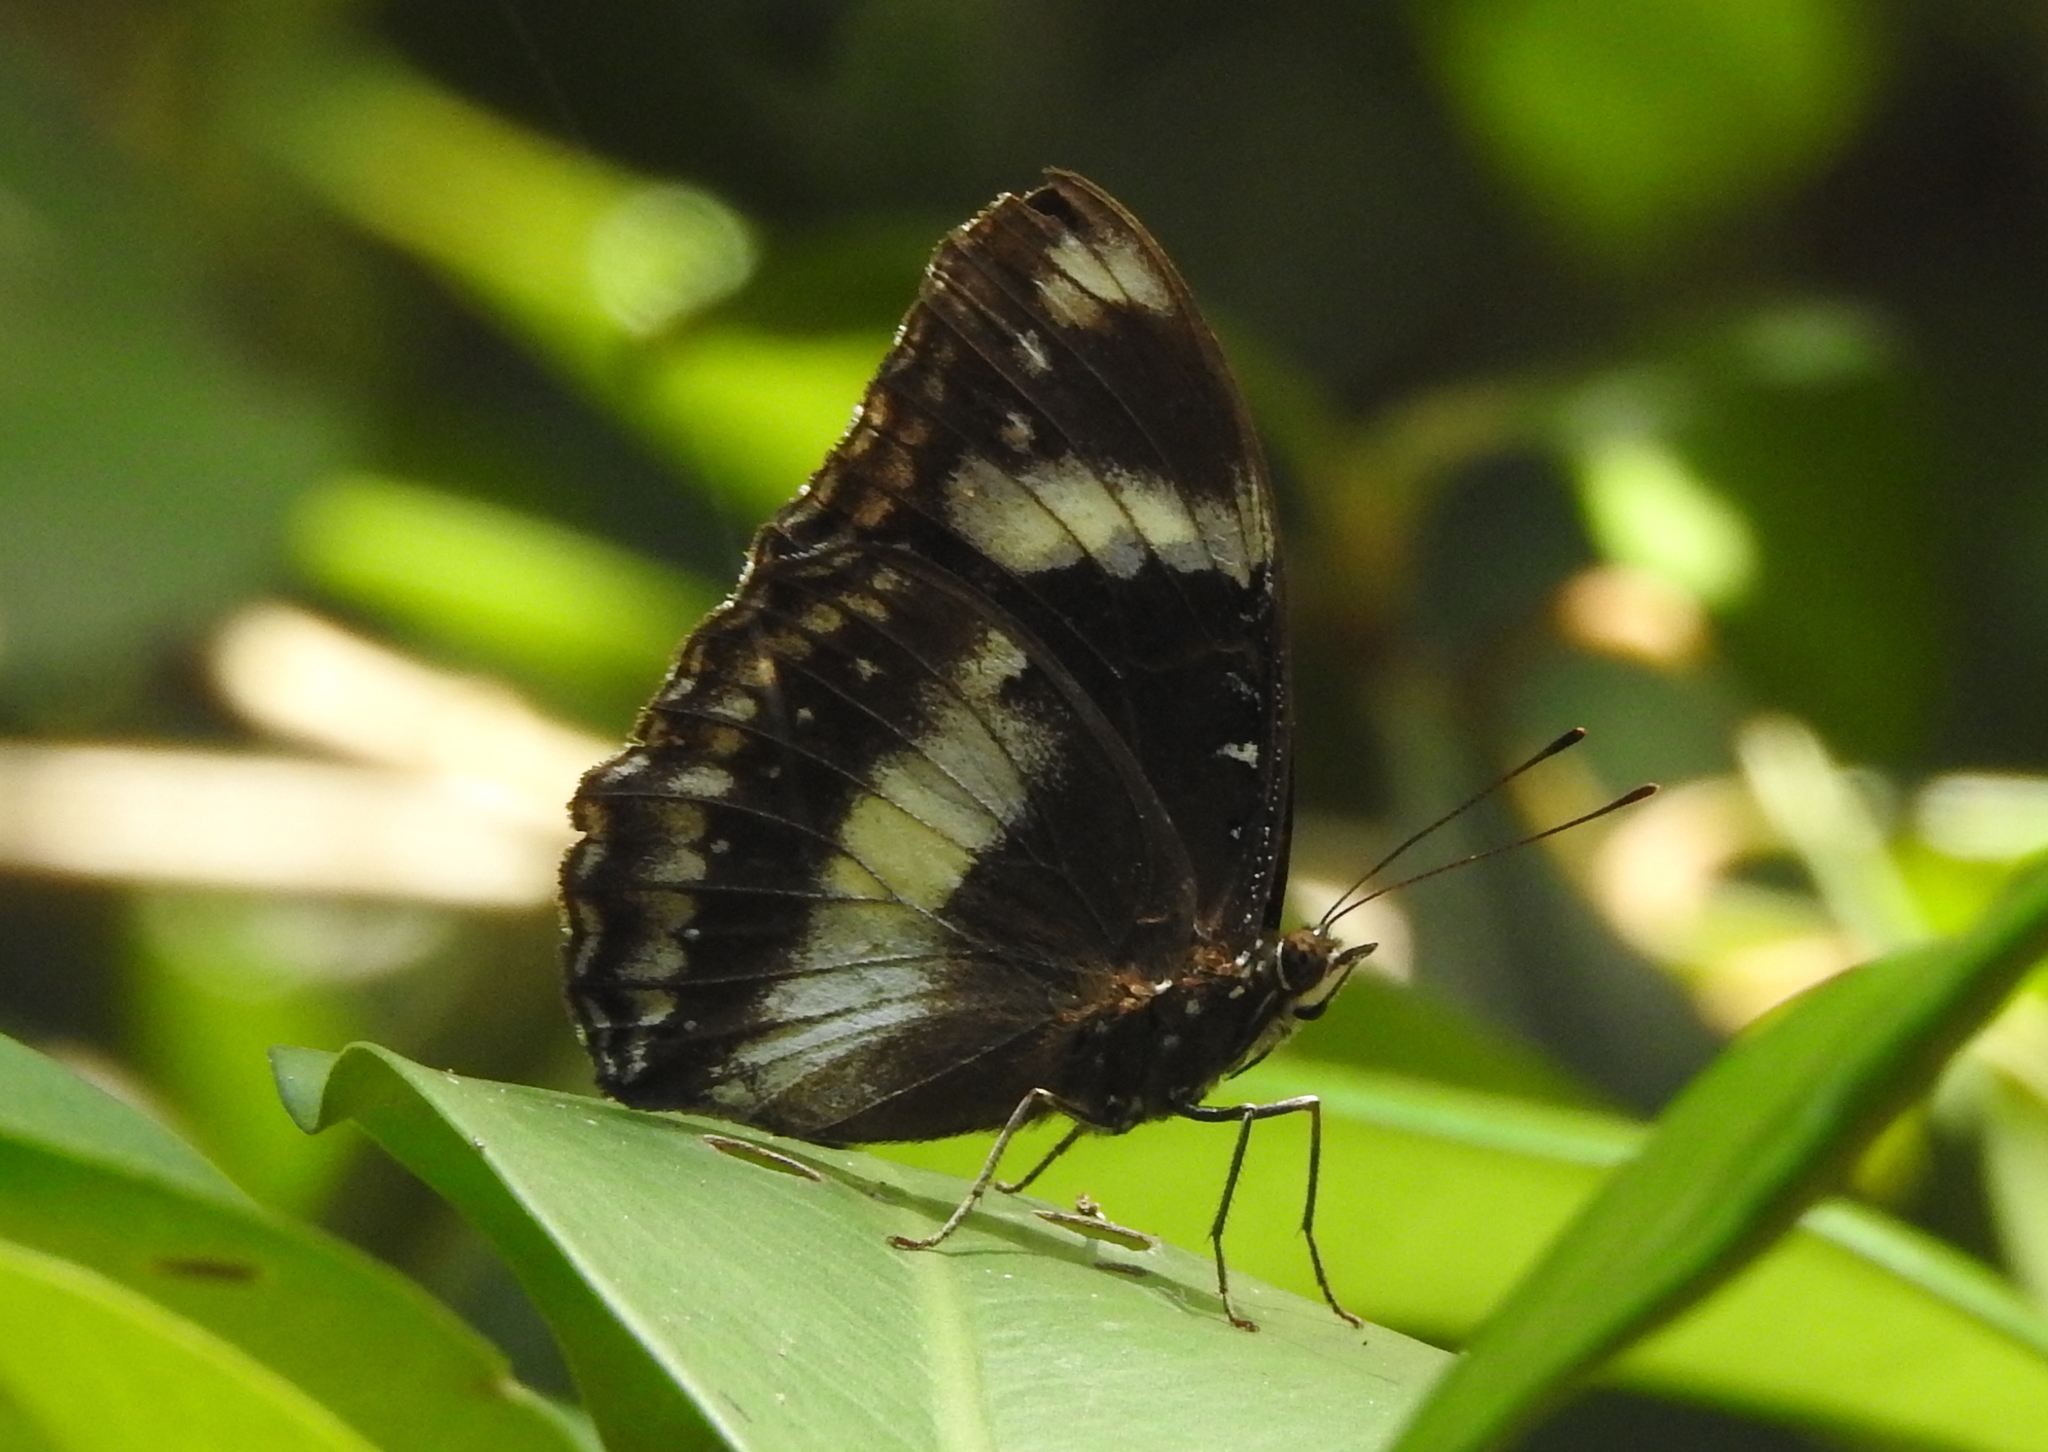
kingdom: Animalia
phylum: Arthropoda
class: Insecta
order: Lepidoptera
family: Nymphalidae
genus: Hypolimnas
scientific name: Hypolimnas bolina
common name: Great eggfly
